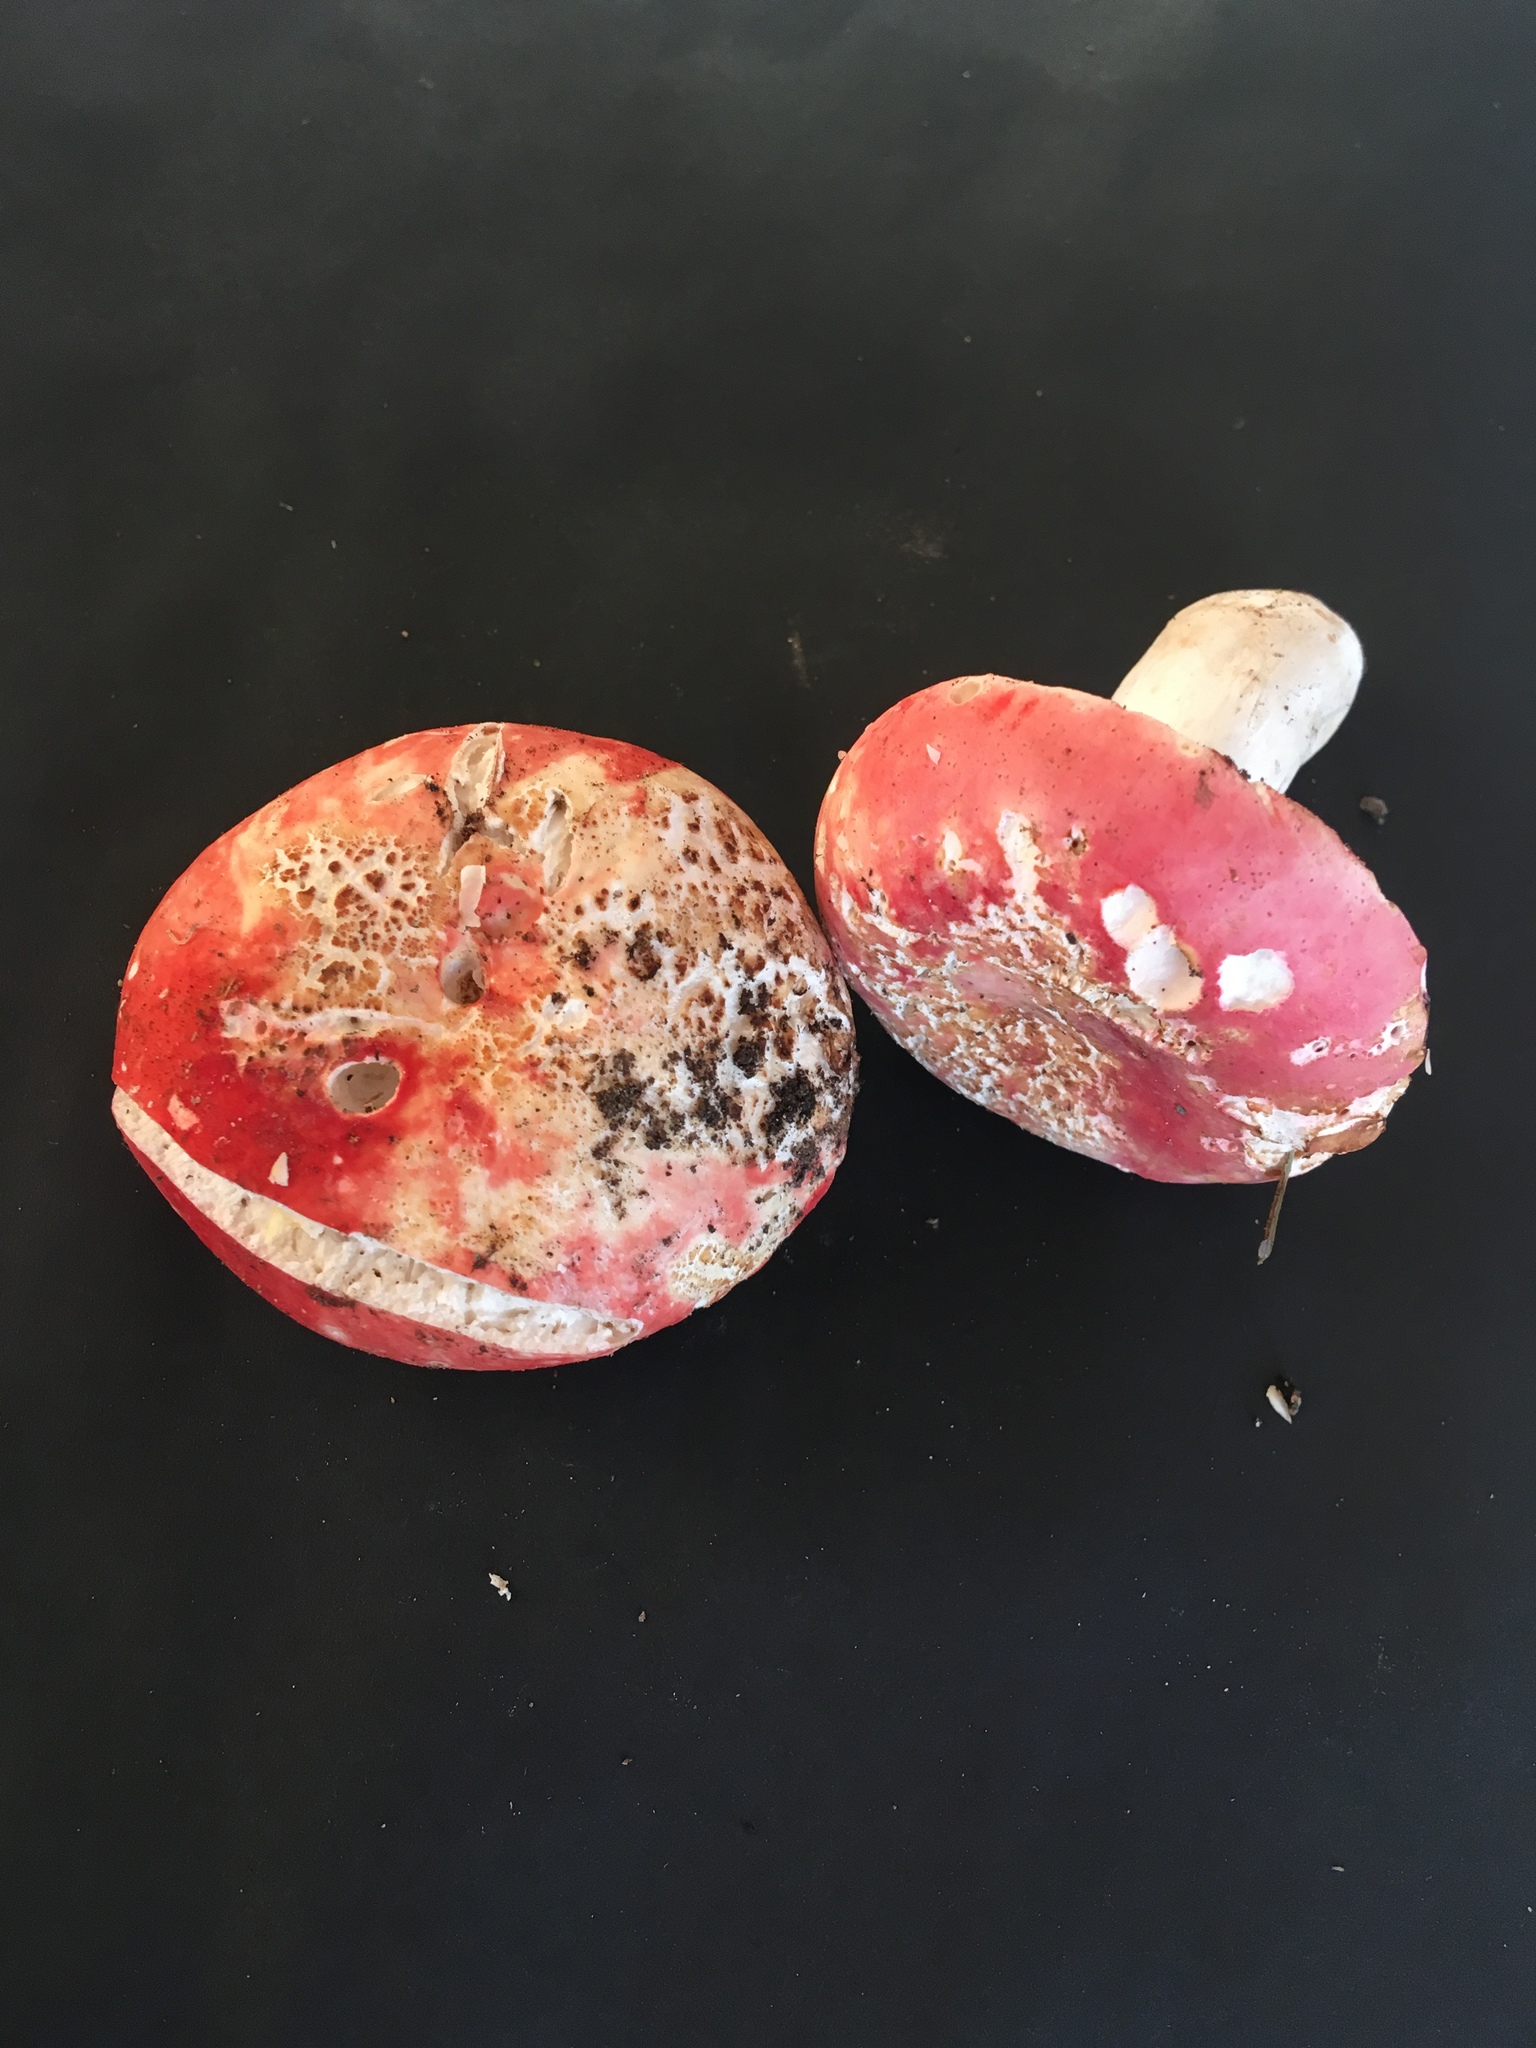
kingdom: Fungi
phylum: Basidiomycota
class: Agaricomycetes
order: Russulales
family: Russulaceae
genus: Russula
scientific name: Russula pulchra
